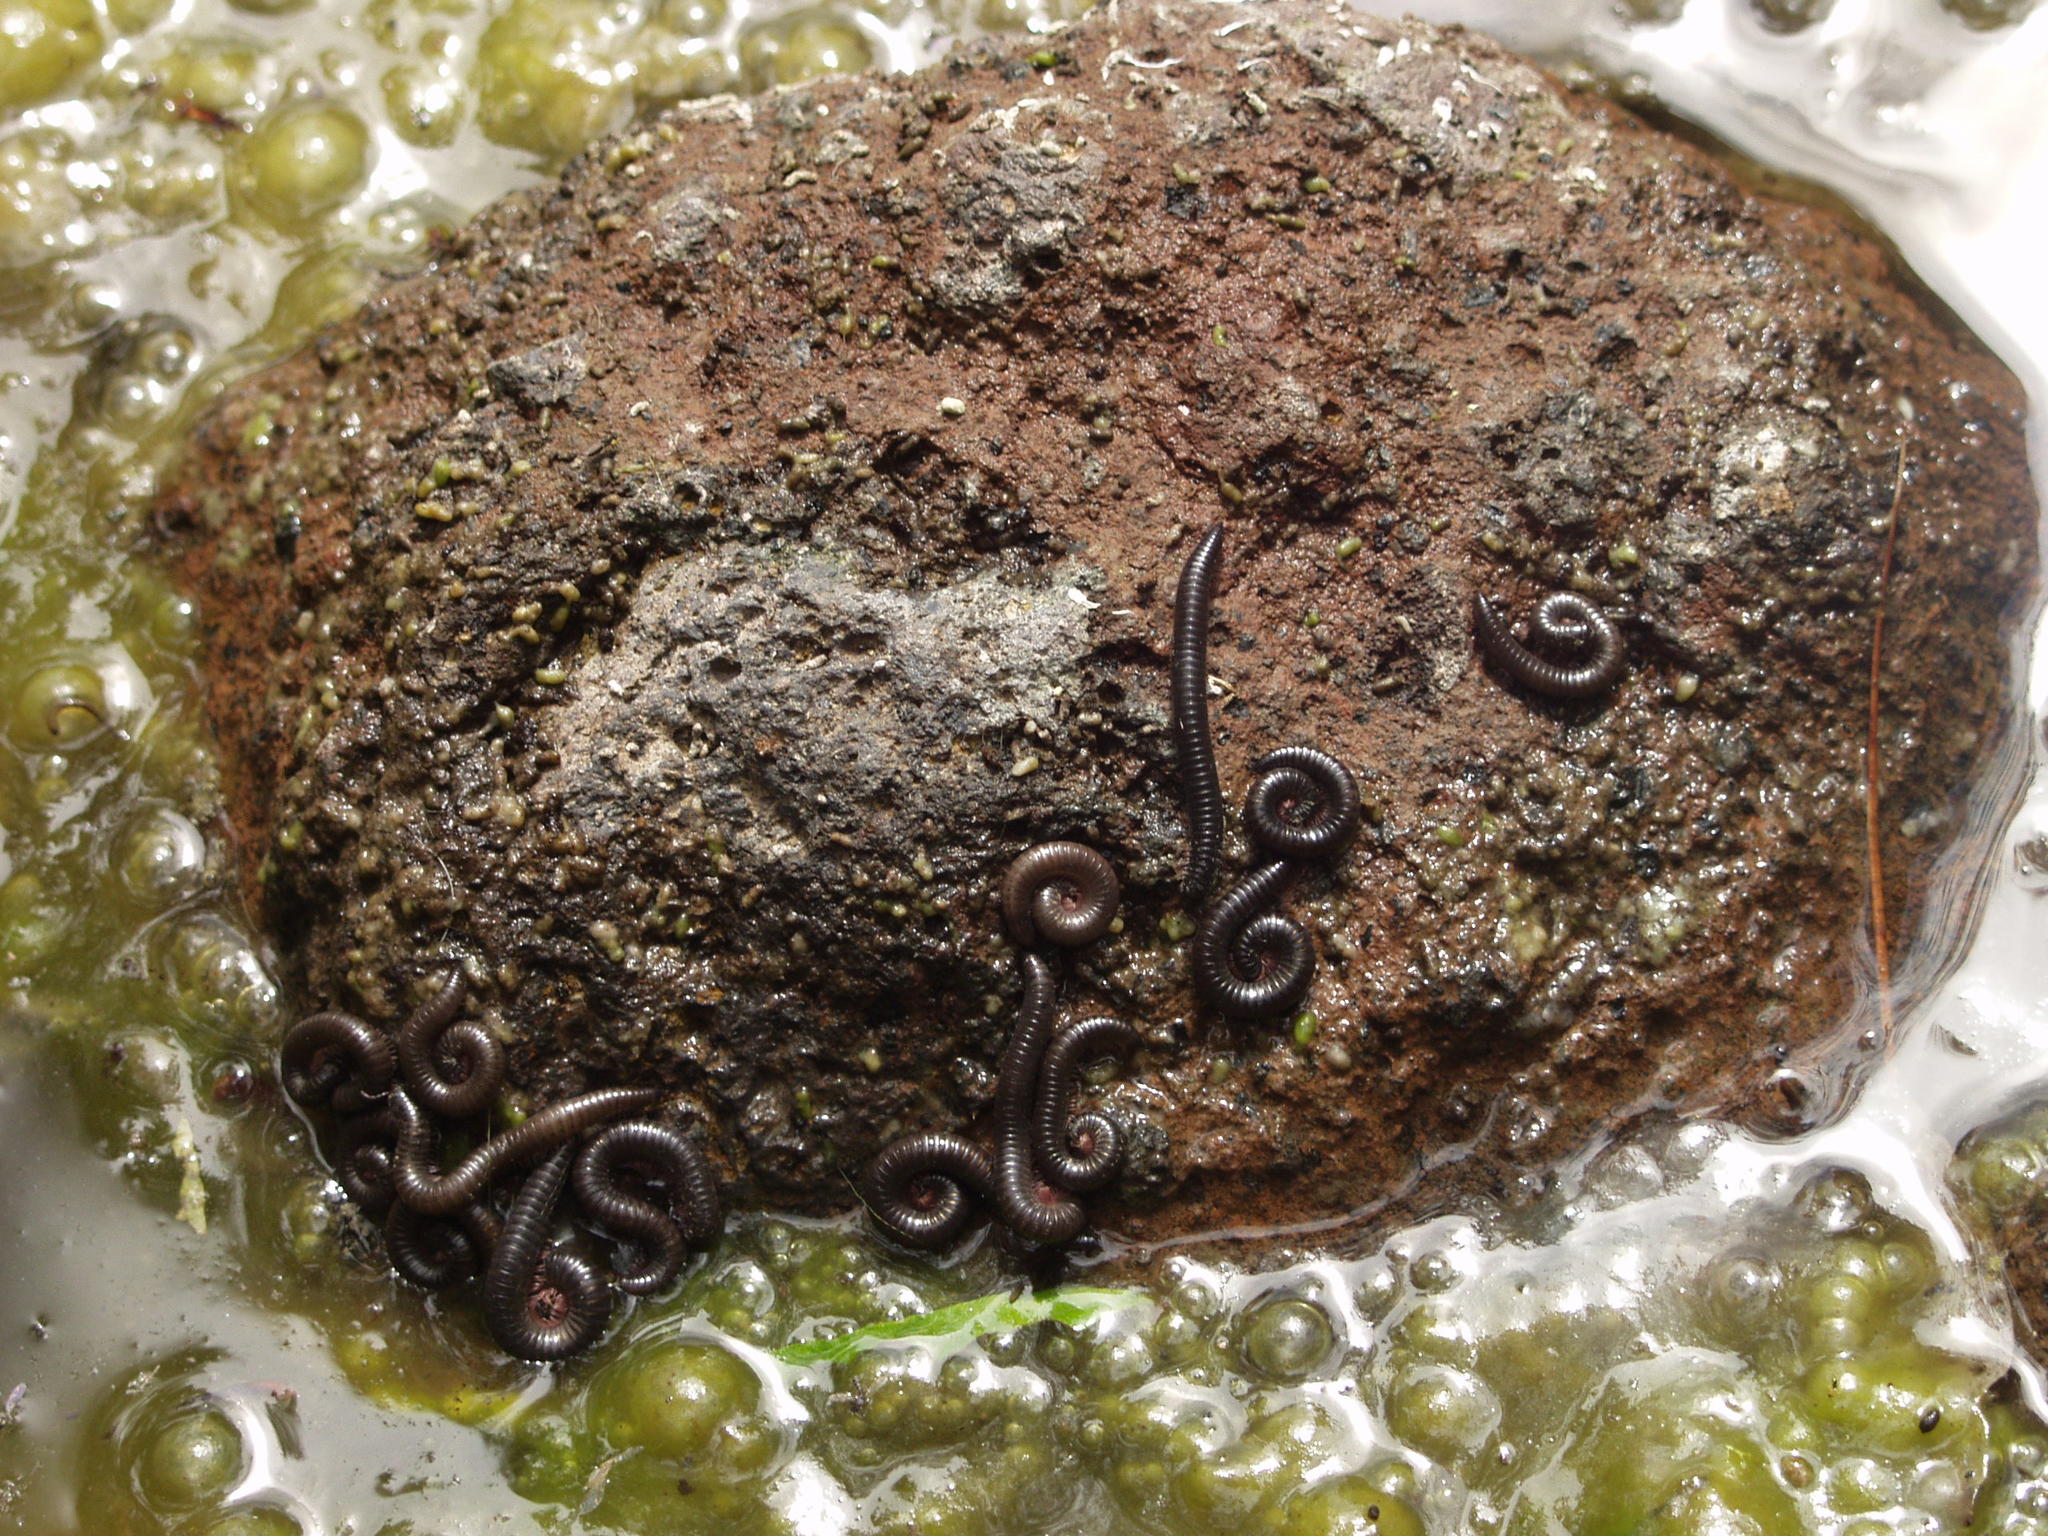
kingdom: Animalia
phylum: Arthropoda
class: Diplopoda
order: Julida
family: Julidae
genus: Ommatoiulus
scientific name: Ommatoiulus moreleti
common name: Portuguese millipede
